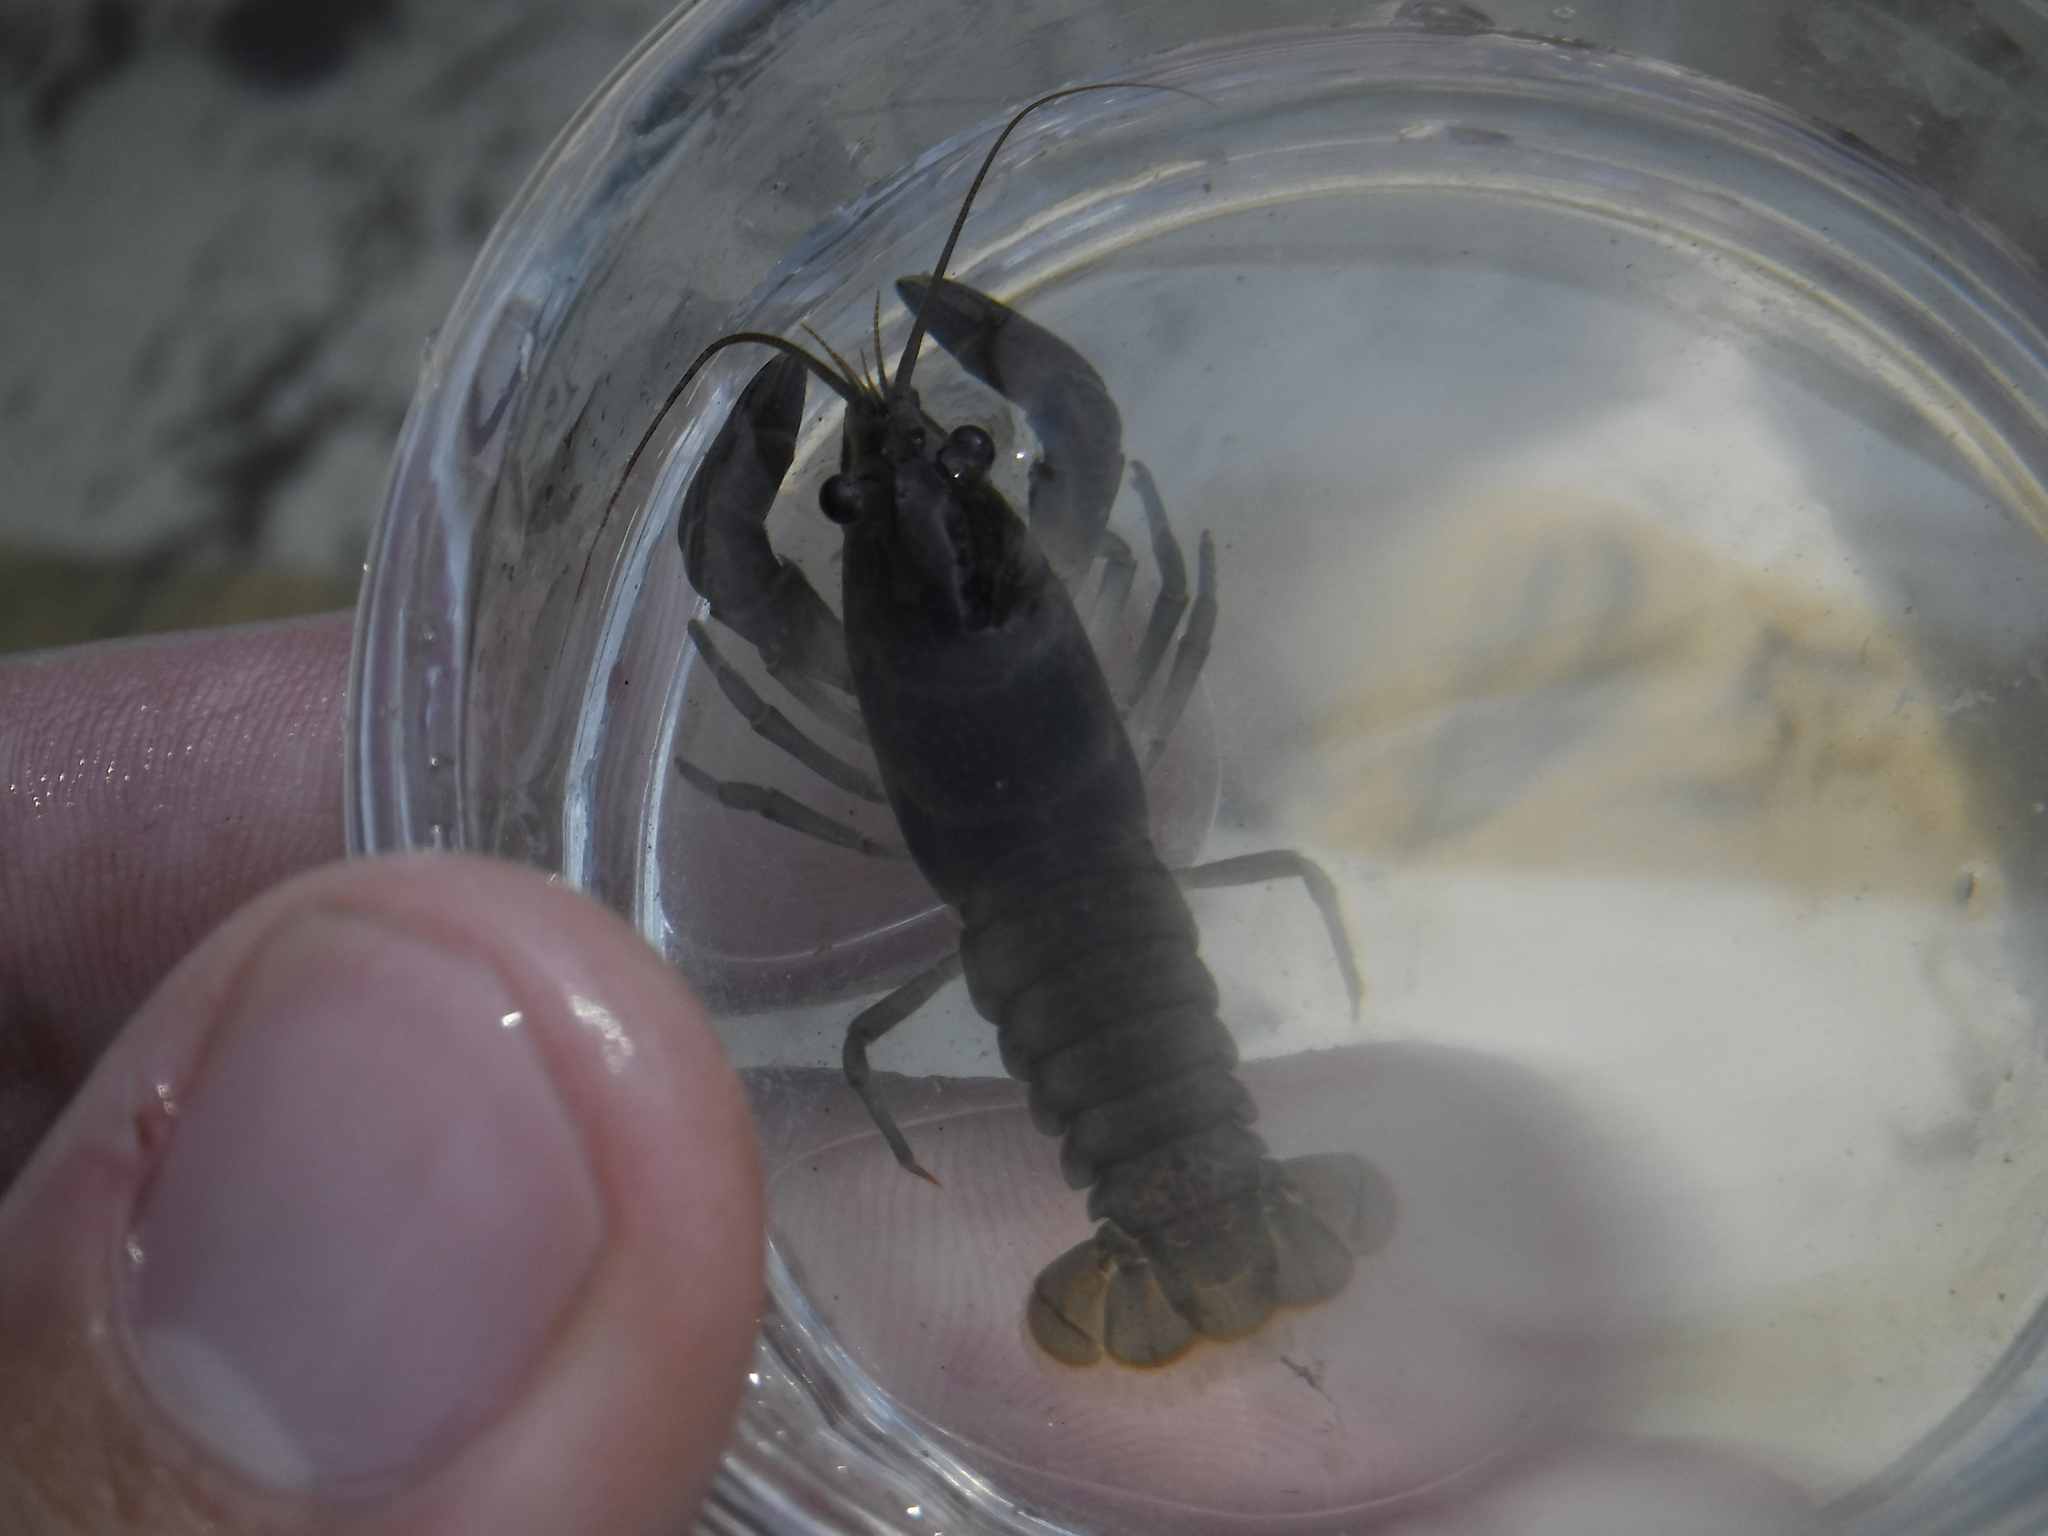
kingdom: Animalia
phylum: Arthropoda
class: Malacostraca
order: Decapoda
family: Cambaridae
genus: Faxonius
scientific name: Faxonius propinquus
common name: Northern clearwater crayfish
